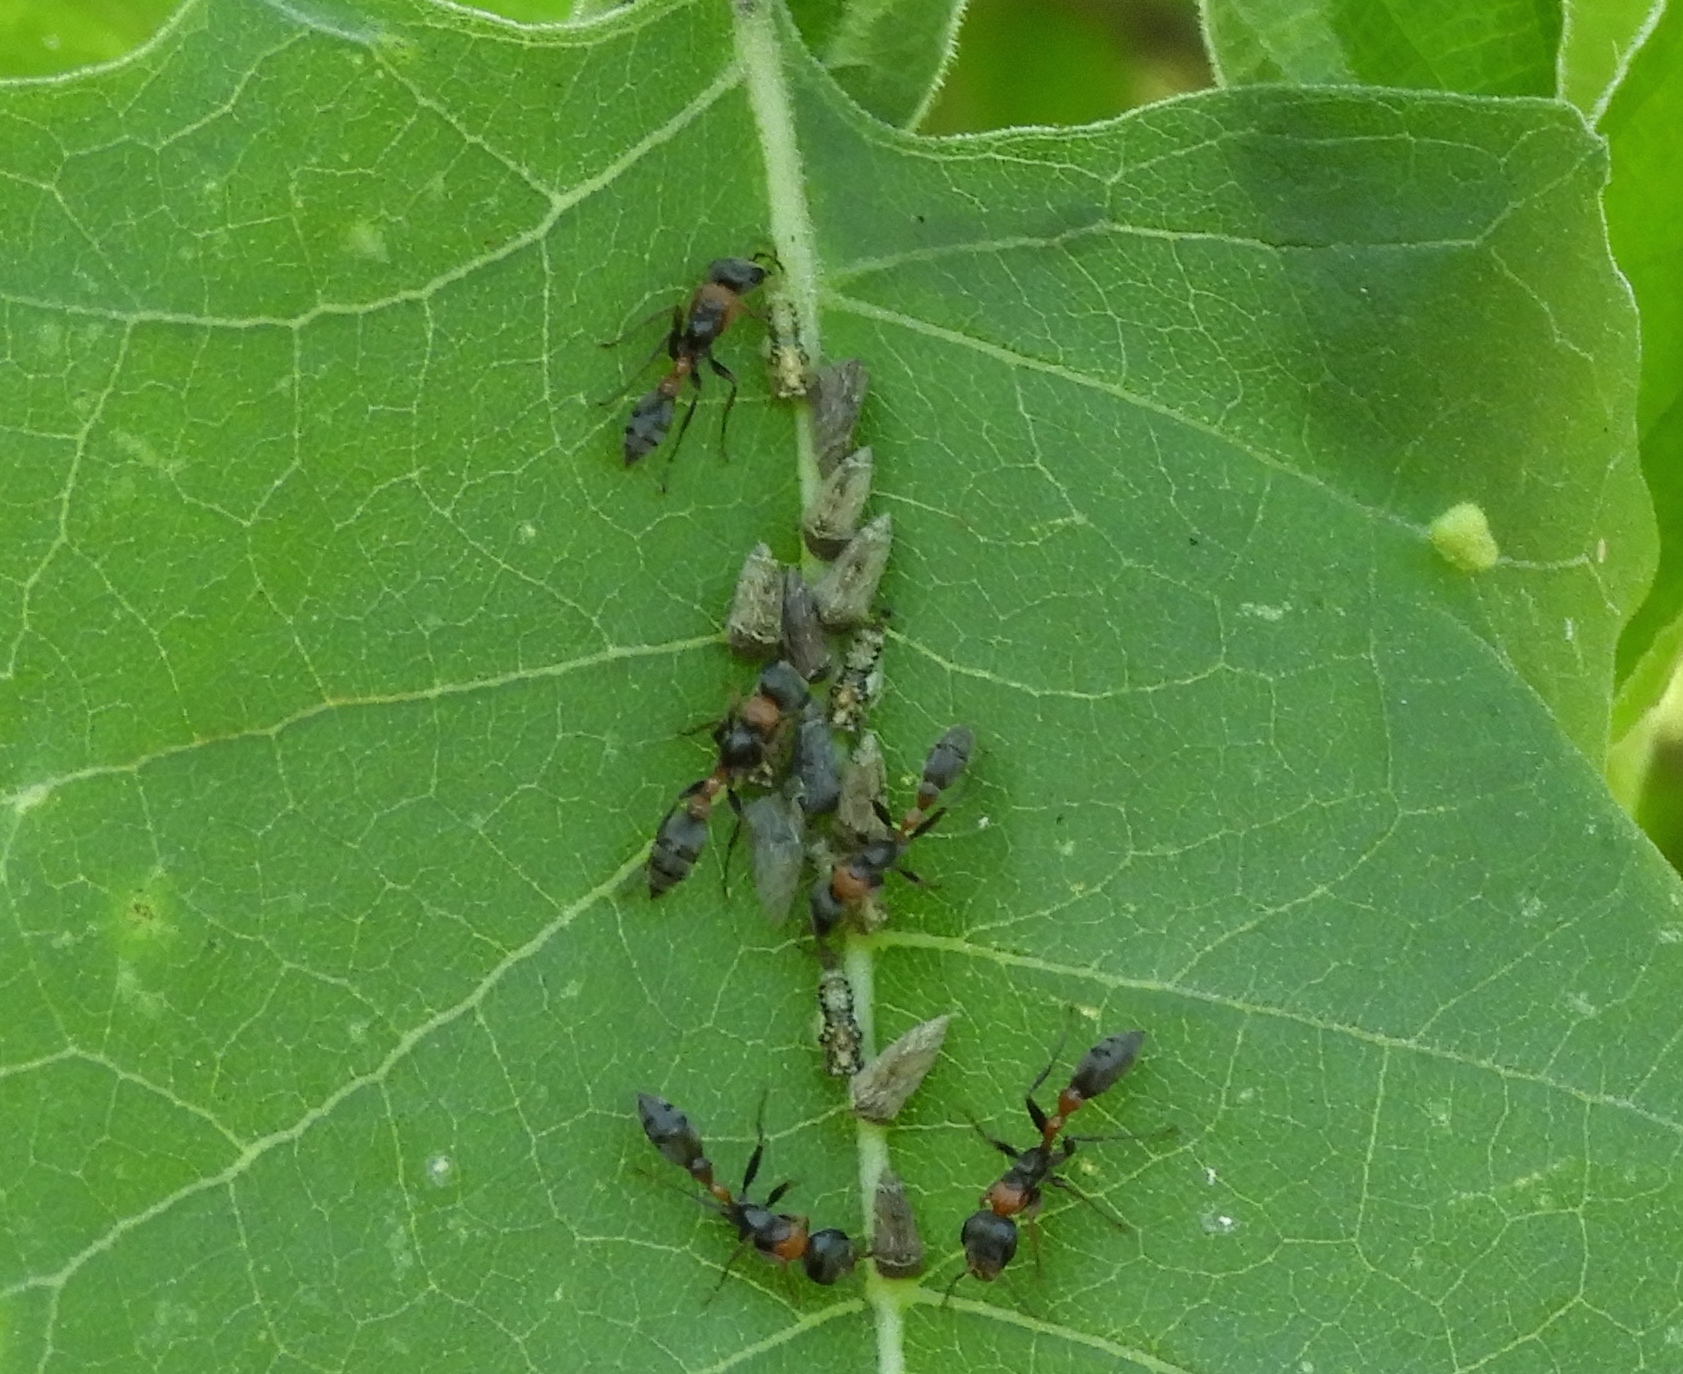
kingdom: Animalia
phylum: Arthropoda
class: Insecta
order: Hymenoptera
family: Formicidae
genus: Pseudomyrmex
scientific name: Pseudomyrmex gracilis
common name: Graceful twig ant
